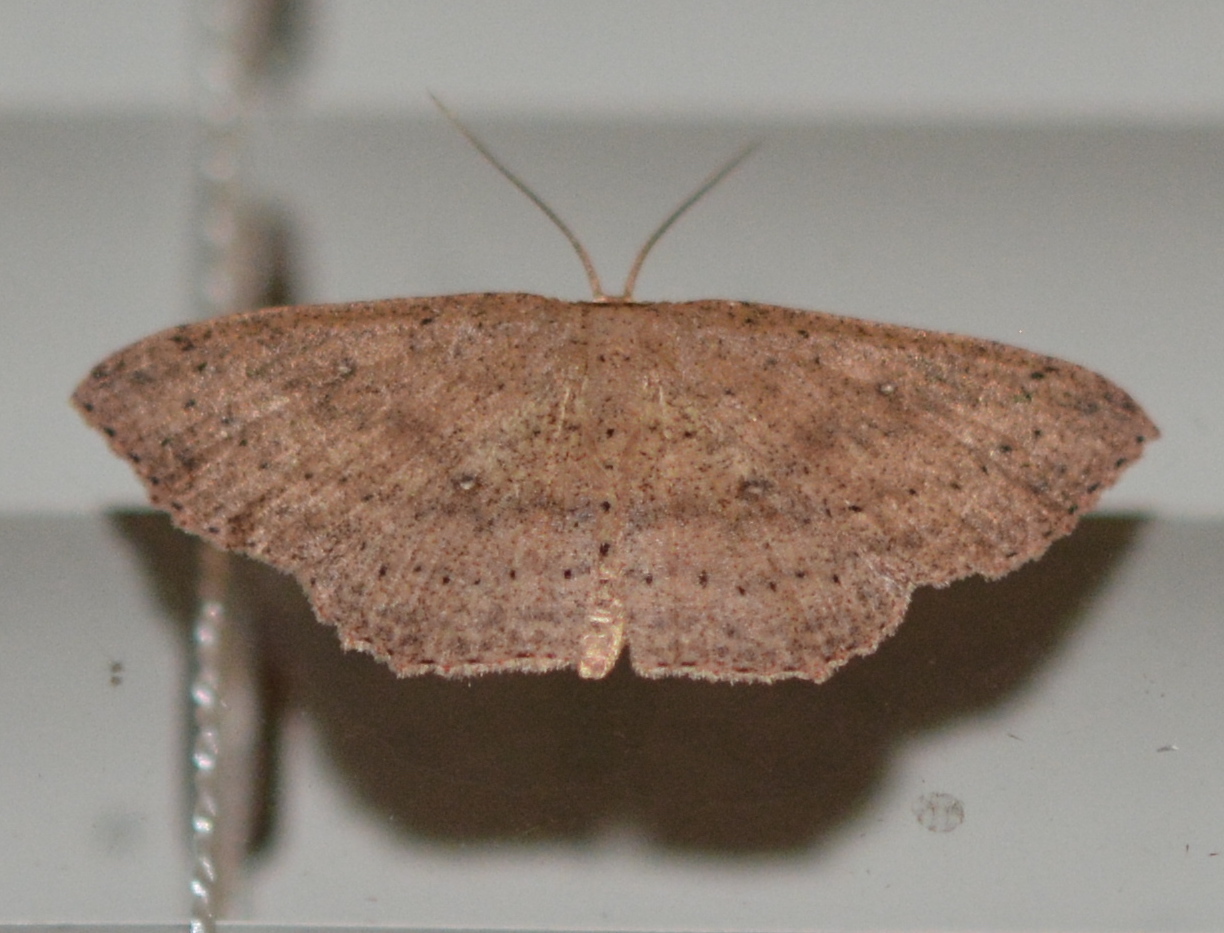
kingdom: Animalia
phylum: Arthropoda
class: Insecta
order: Lepidoptera
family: Geometridae
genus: Cyclophora
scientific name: Cyclophora myrtaria
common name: Waxmyrtle wave moth
